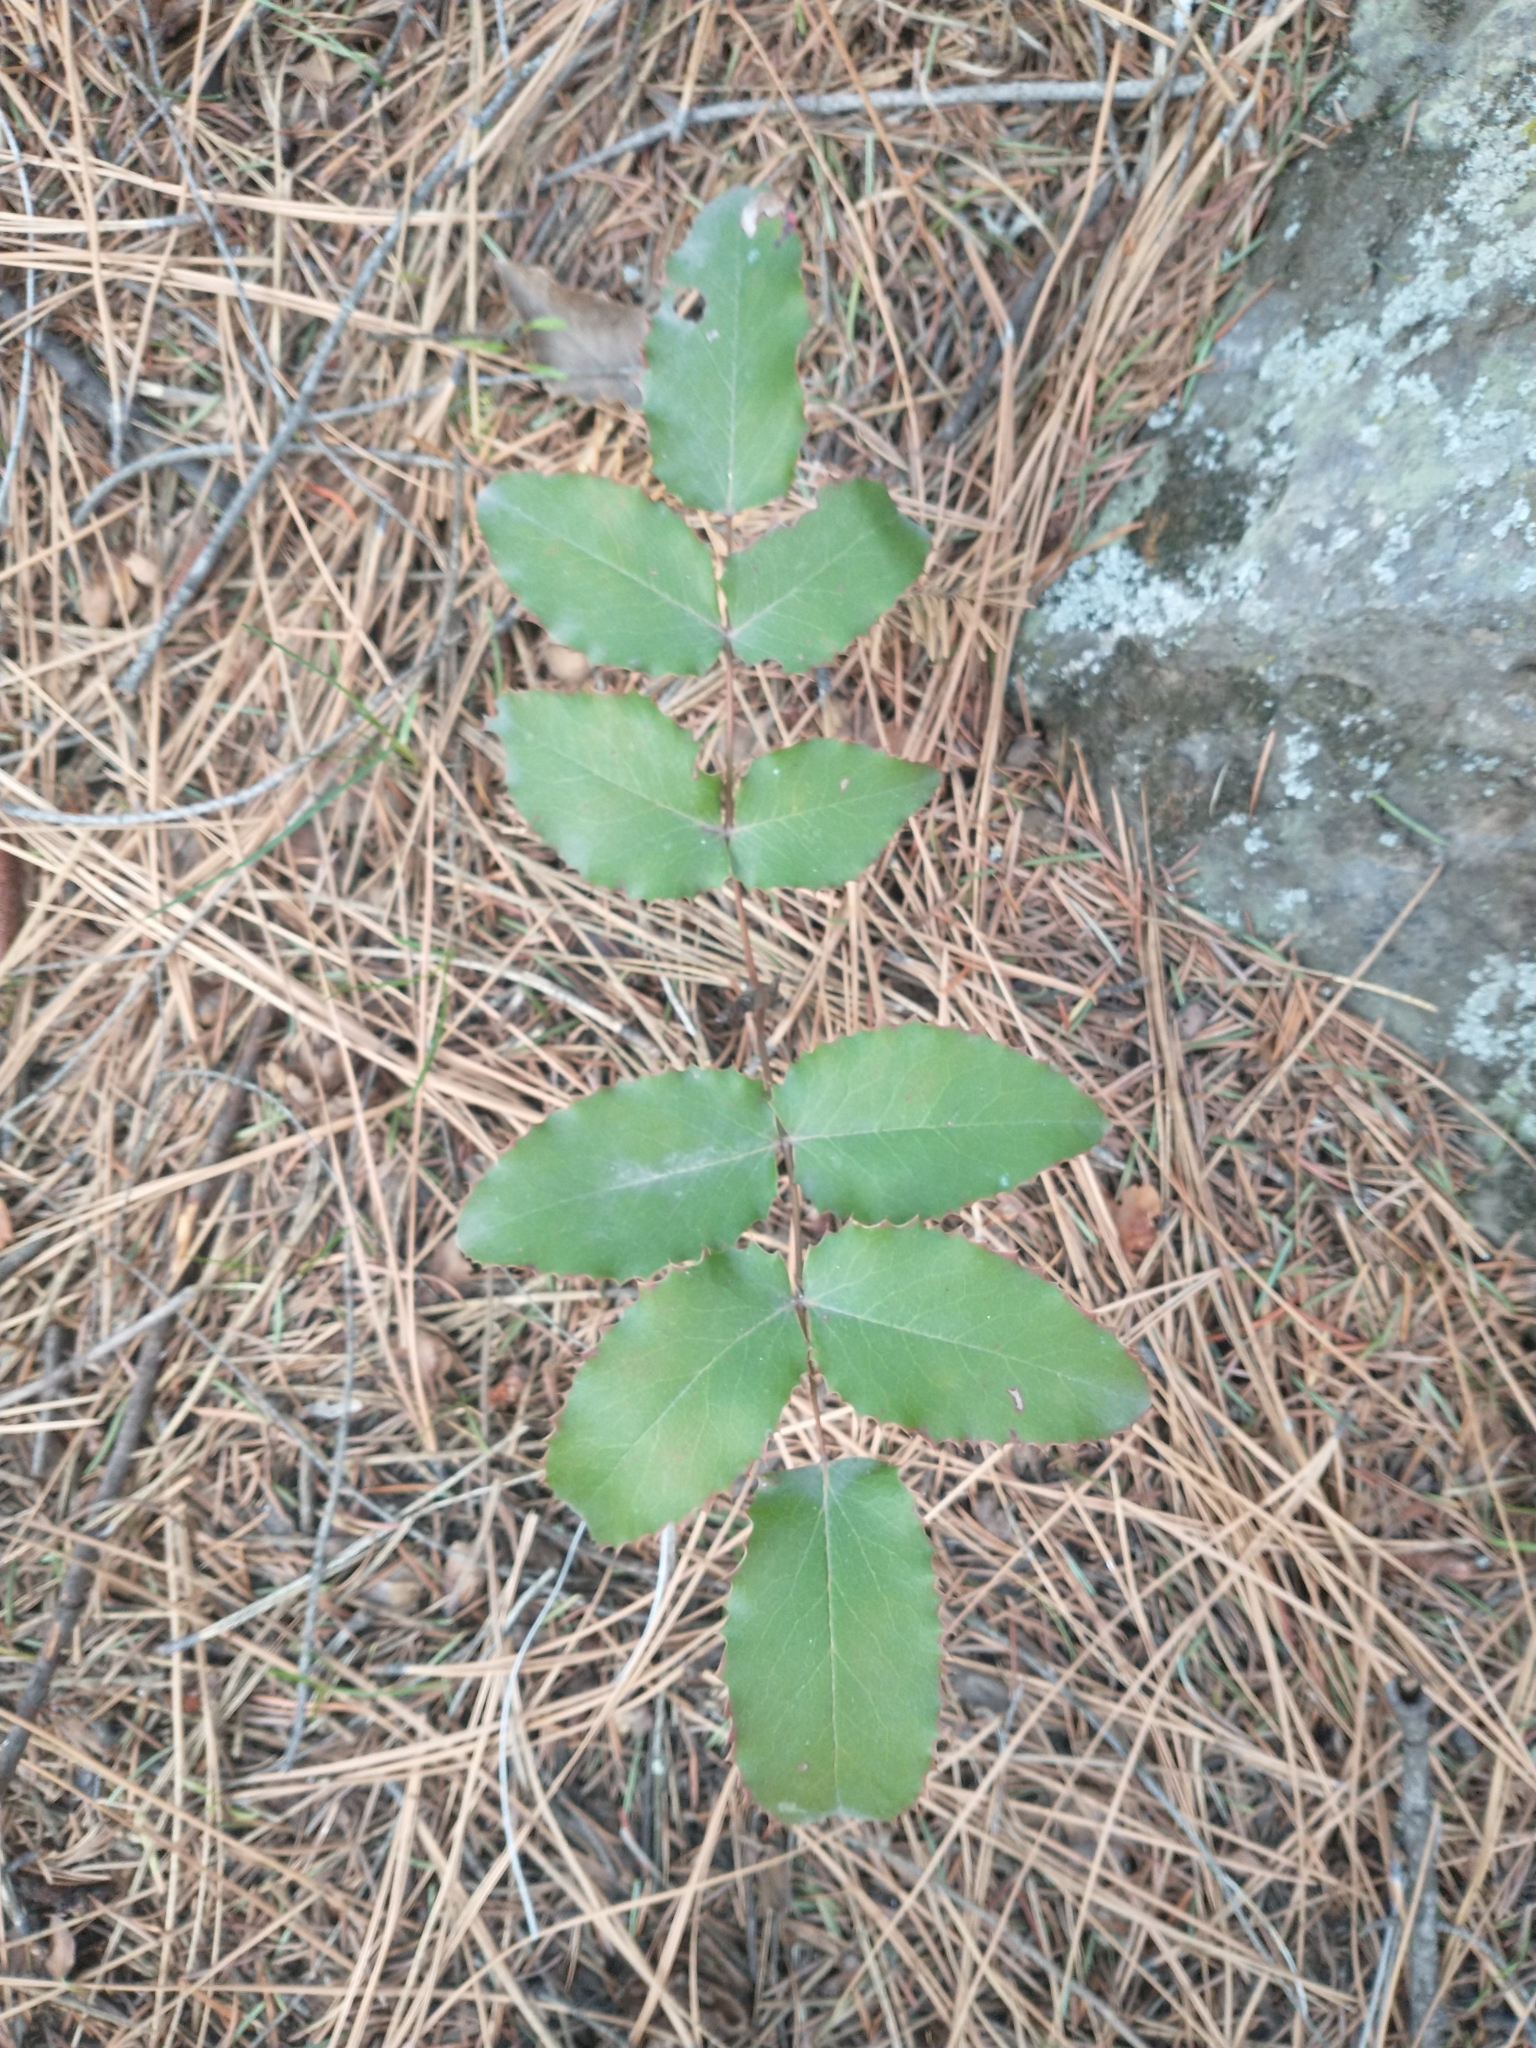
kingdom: Plantae
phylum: Tracheophyta
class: Magnoliopsida
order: Ranunculales
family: Berberidaceae
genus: Mahonia
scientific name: Mahonia repens
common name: Creeping oregon-grape
